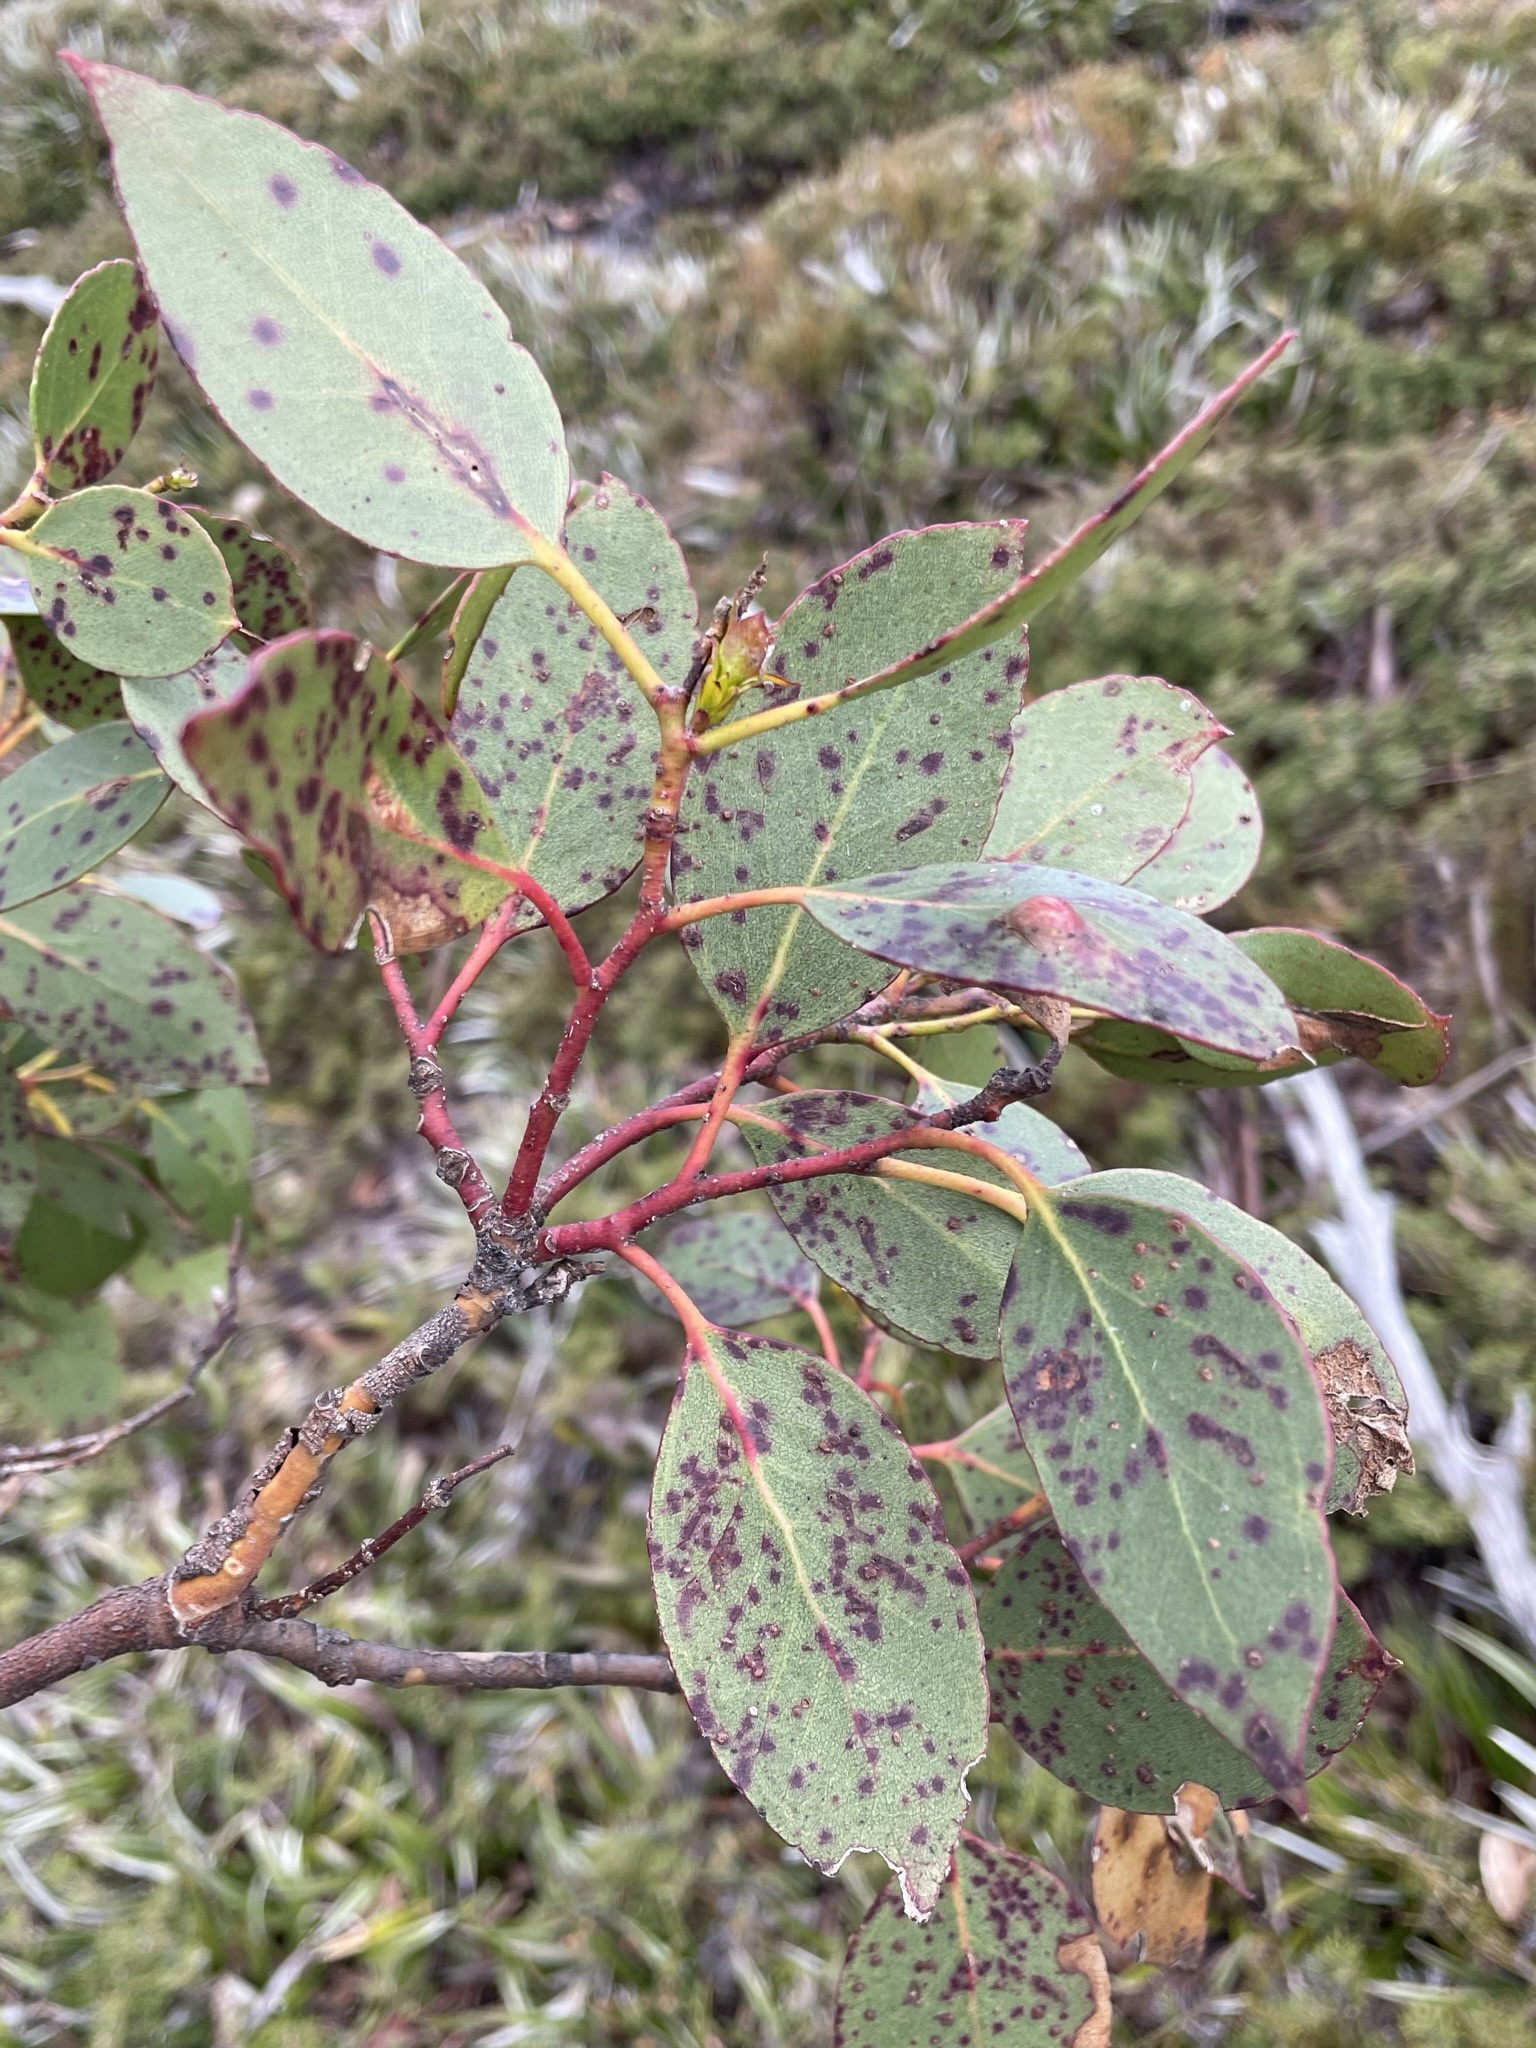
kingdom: Plantae
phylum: Tracheophyta
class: Magnoliopsida
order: Myrtales
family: Myrtaceae
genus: Eucalyptus
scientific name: Eucalyptus subcrenulata
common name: Alpine yellow gum
